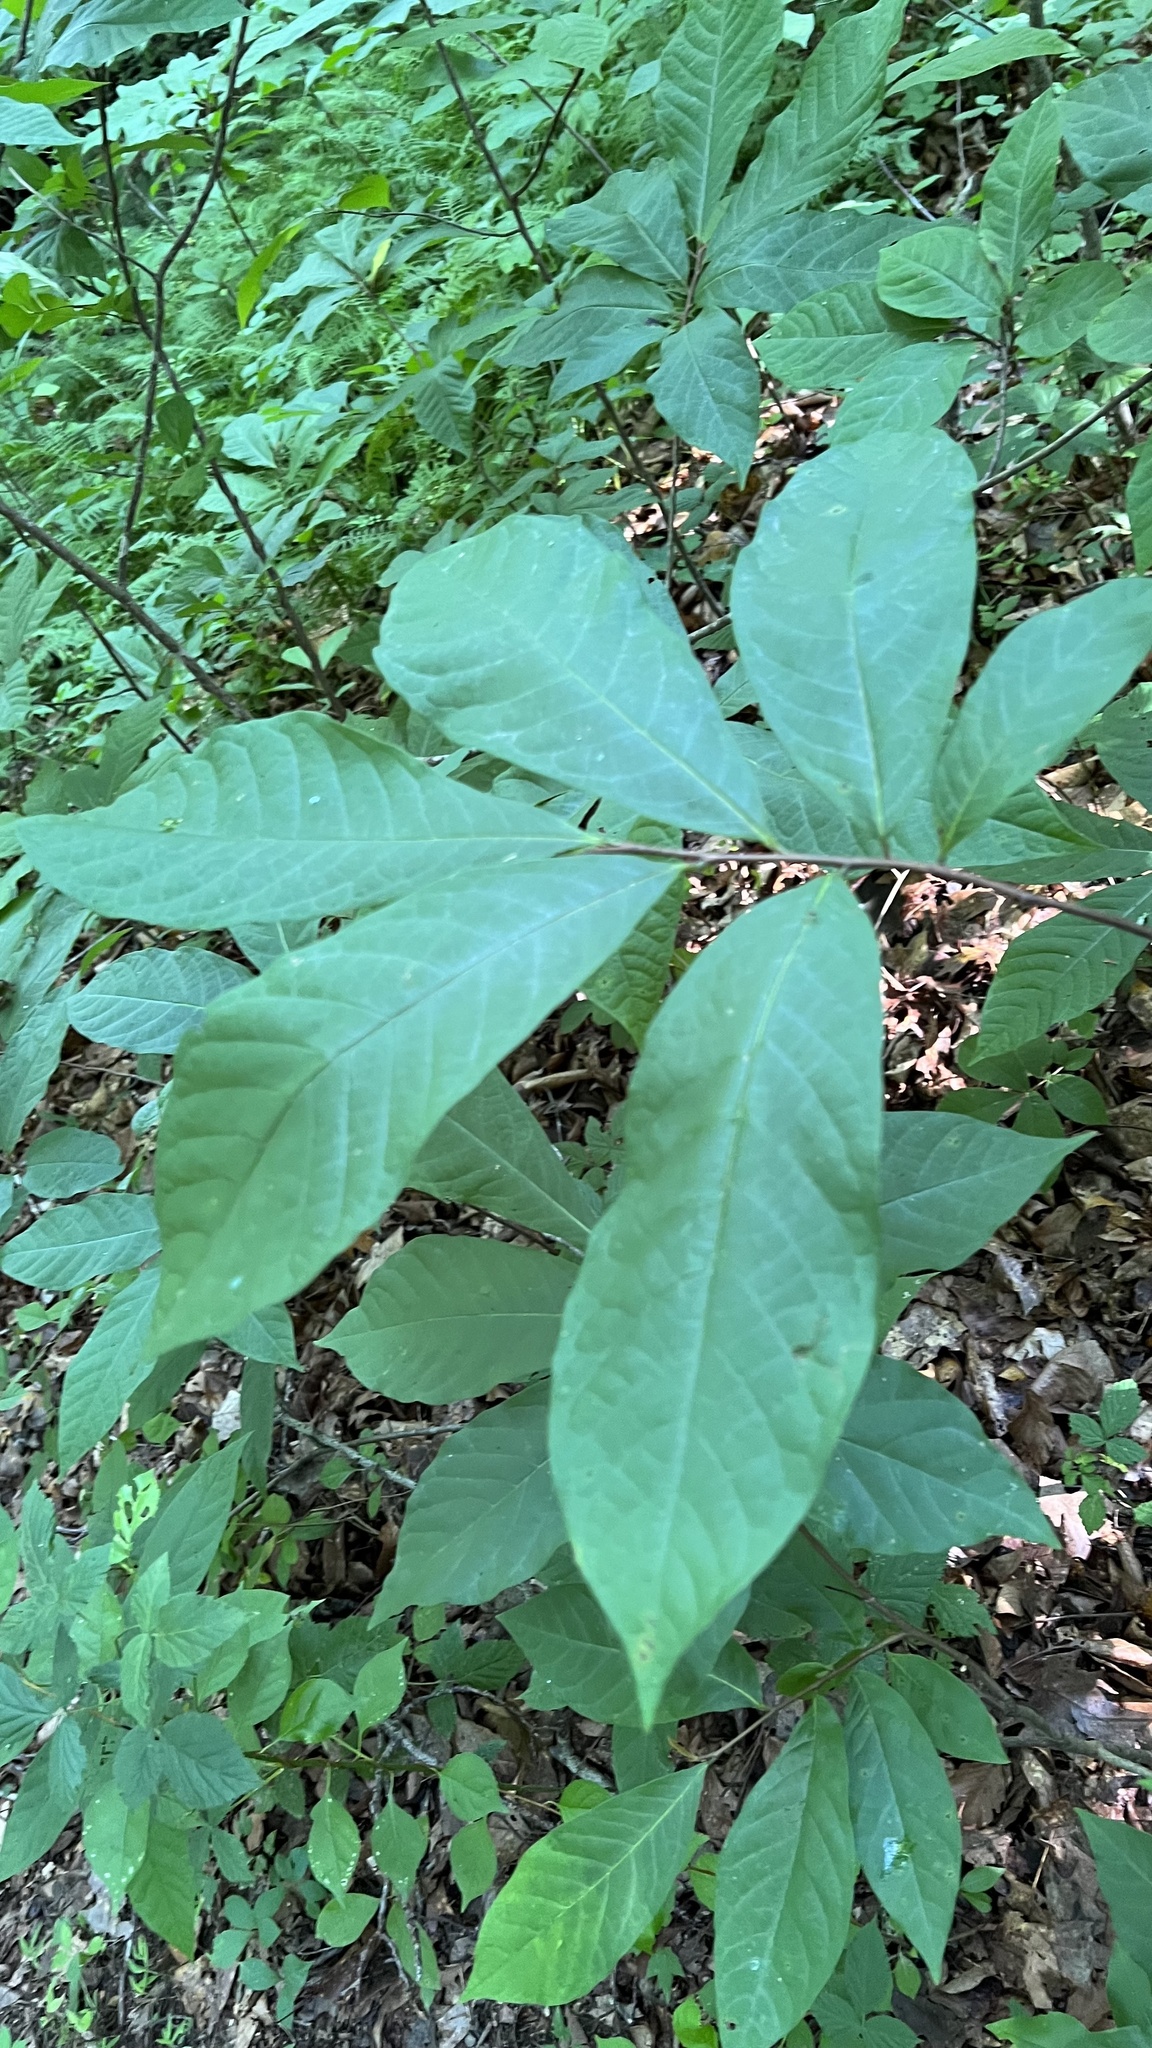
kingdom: Plantae
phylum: Tracheophyta
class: Magnoliopsida
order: Magnoliales
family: Annonaceae
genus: Asimina
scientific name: Asimina triloba
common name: Dog-banana
